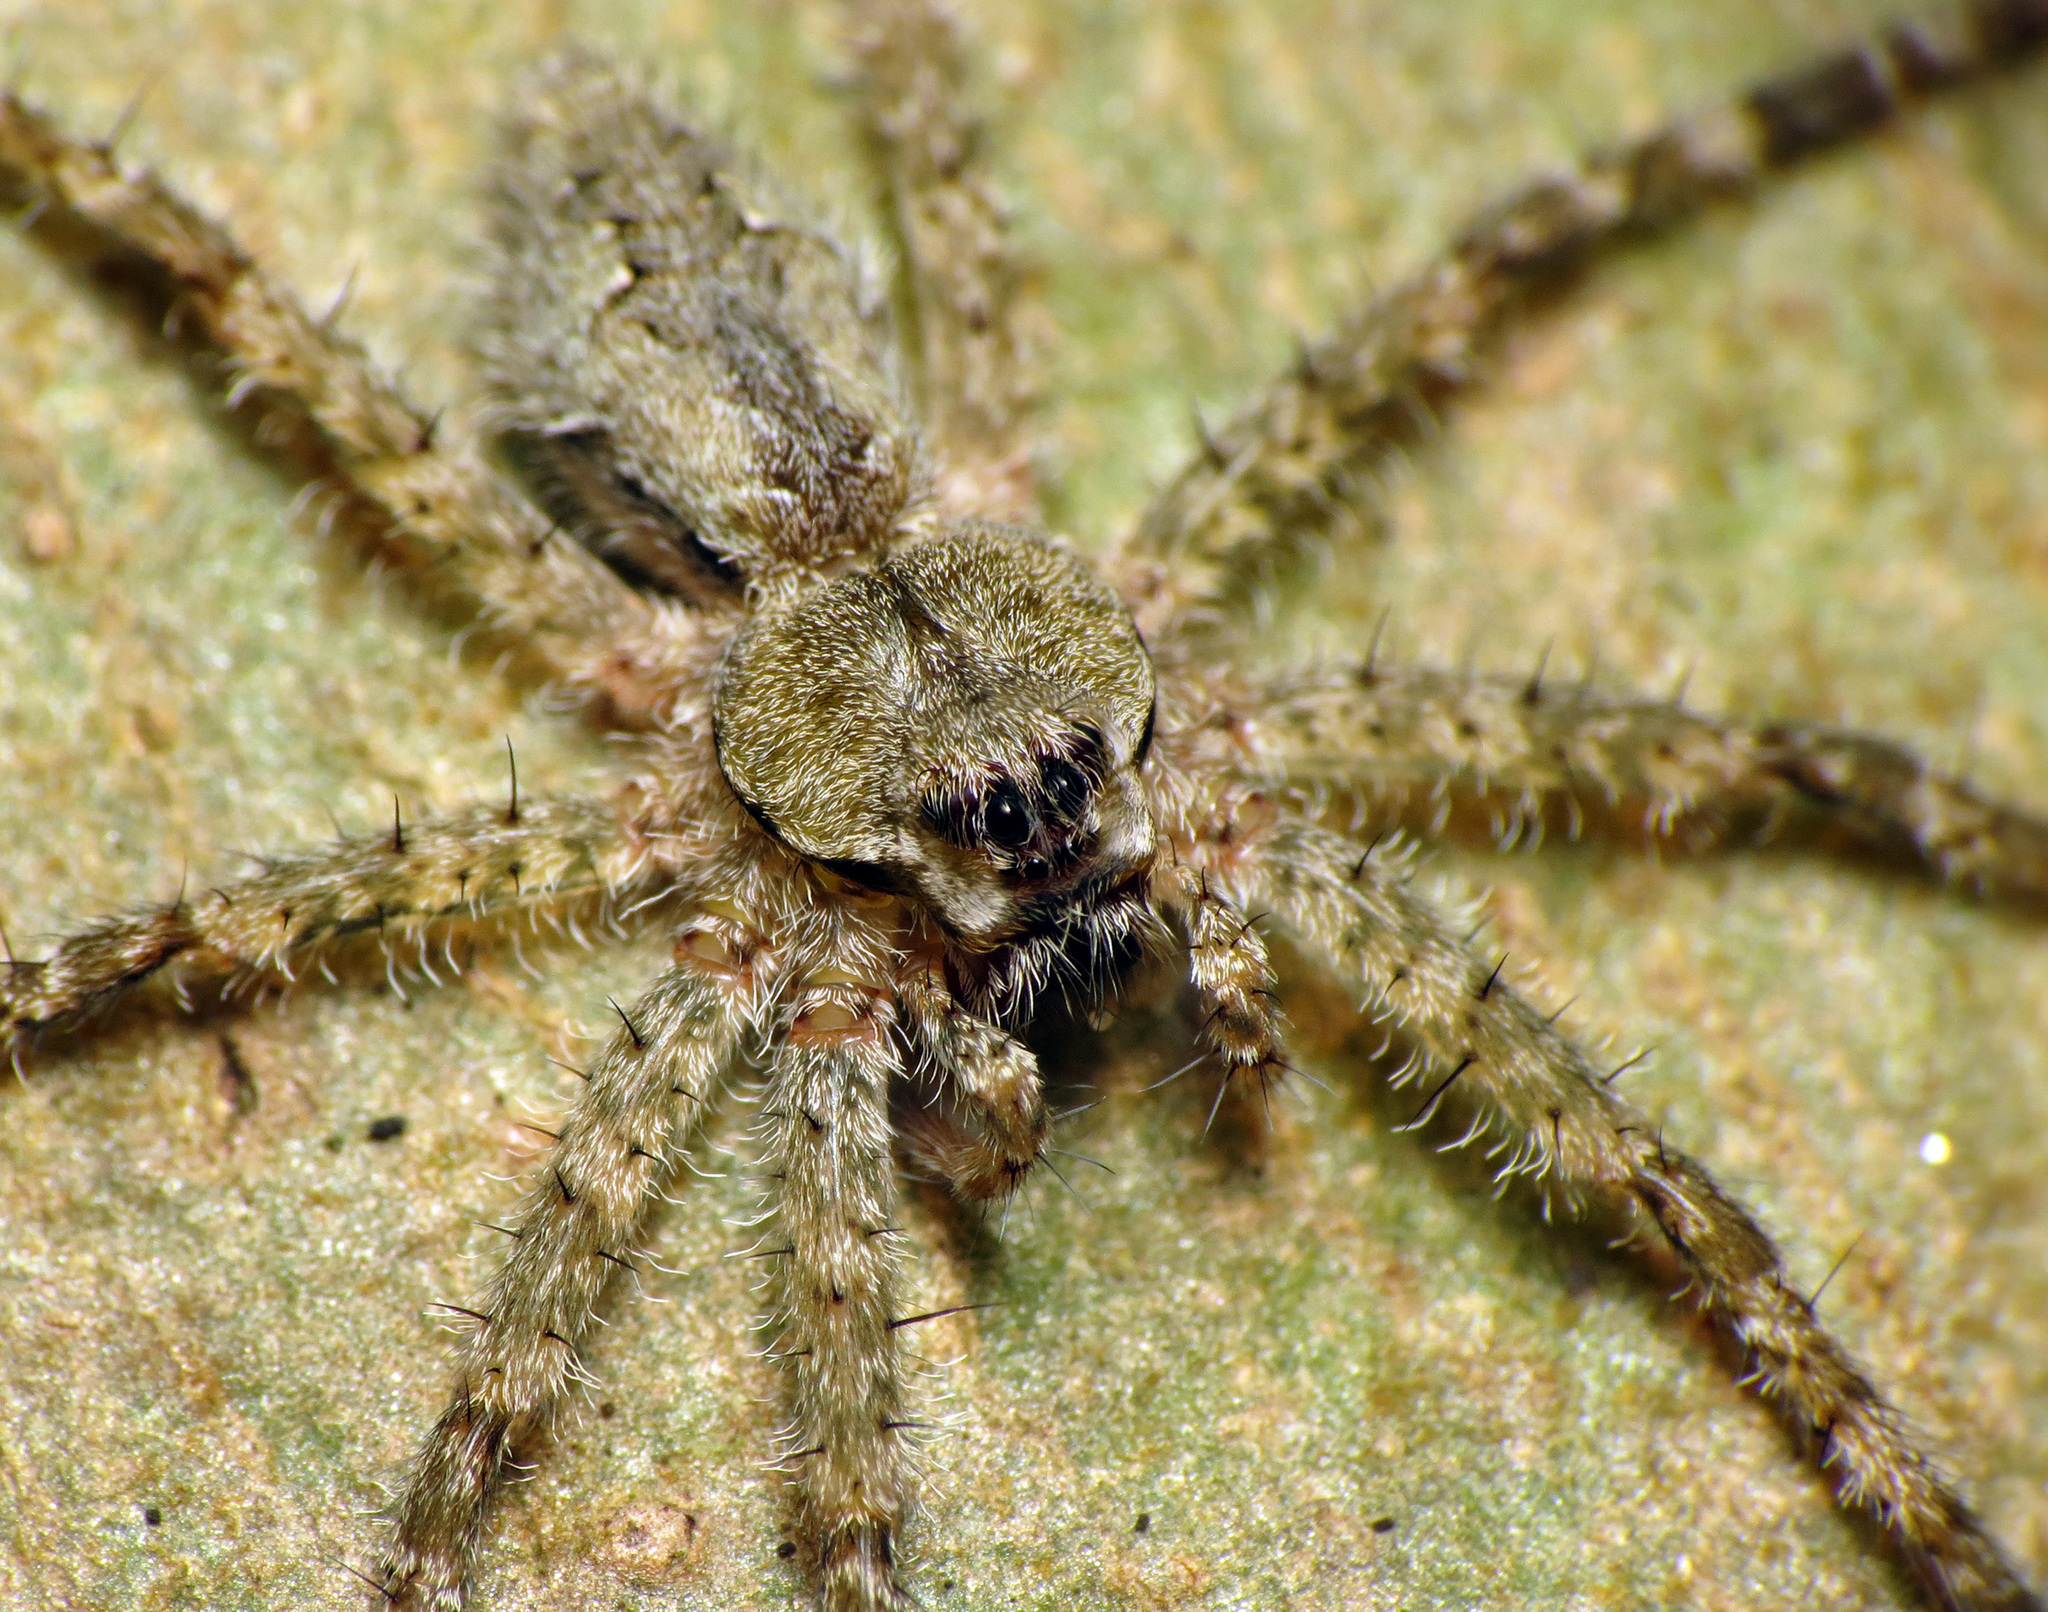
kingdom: Animalia
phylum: Arthropoda
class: Arachnida
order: Araneae
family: Pisauridae
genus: Dolomedes
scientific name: Dolomedes albineus
